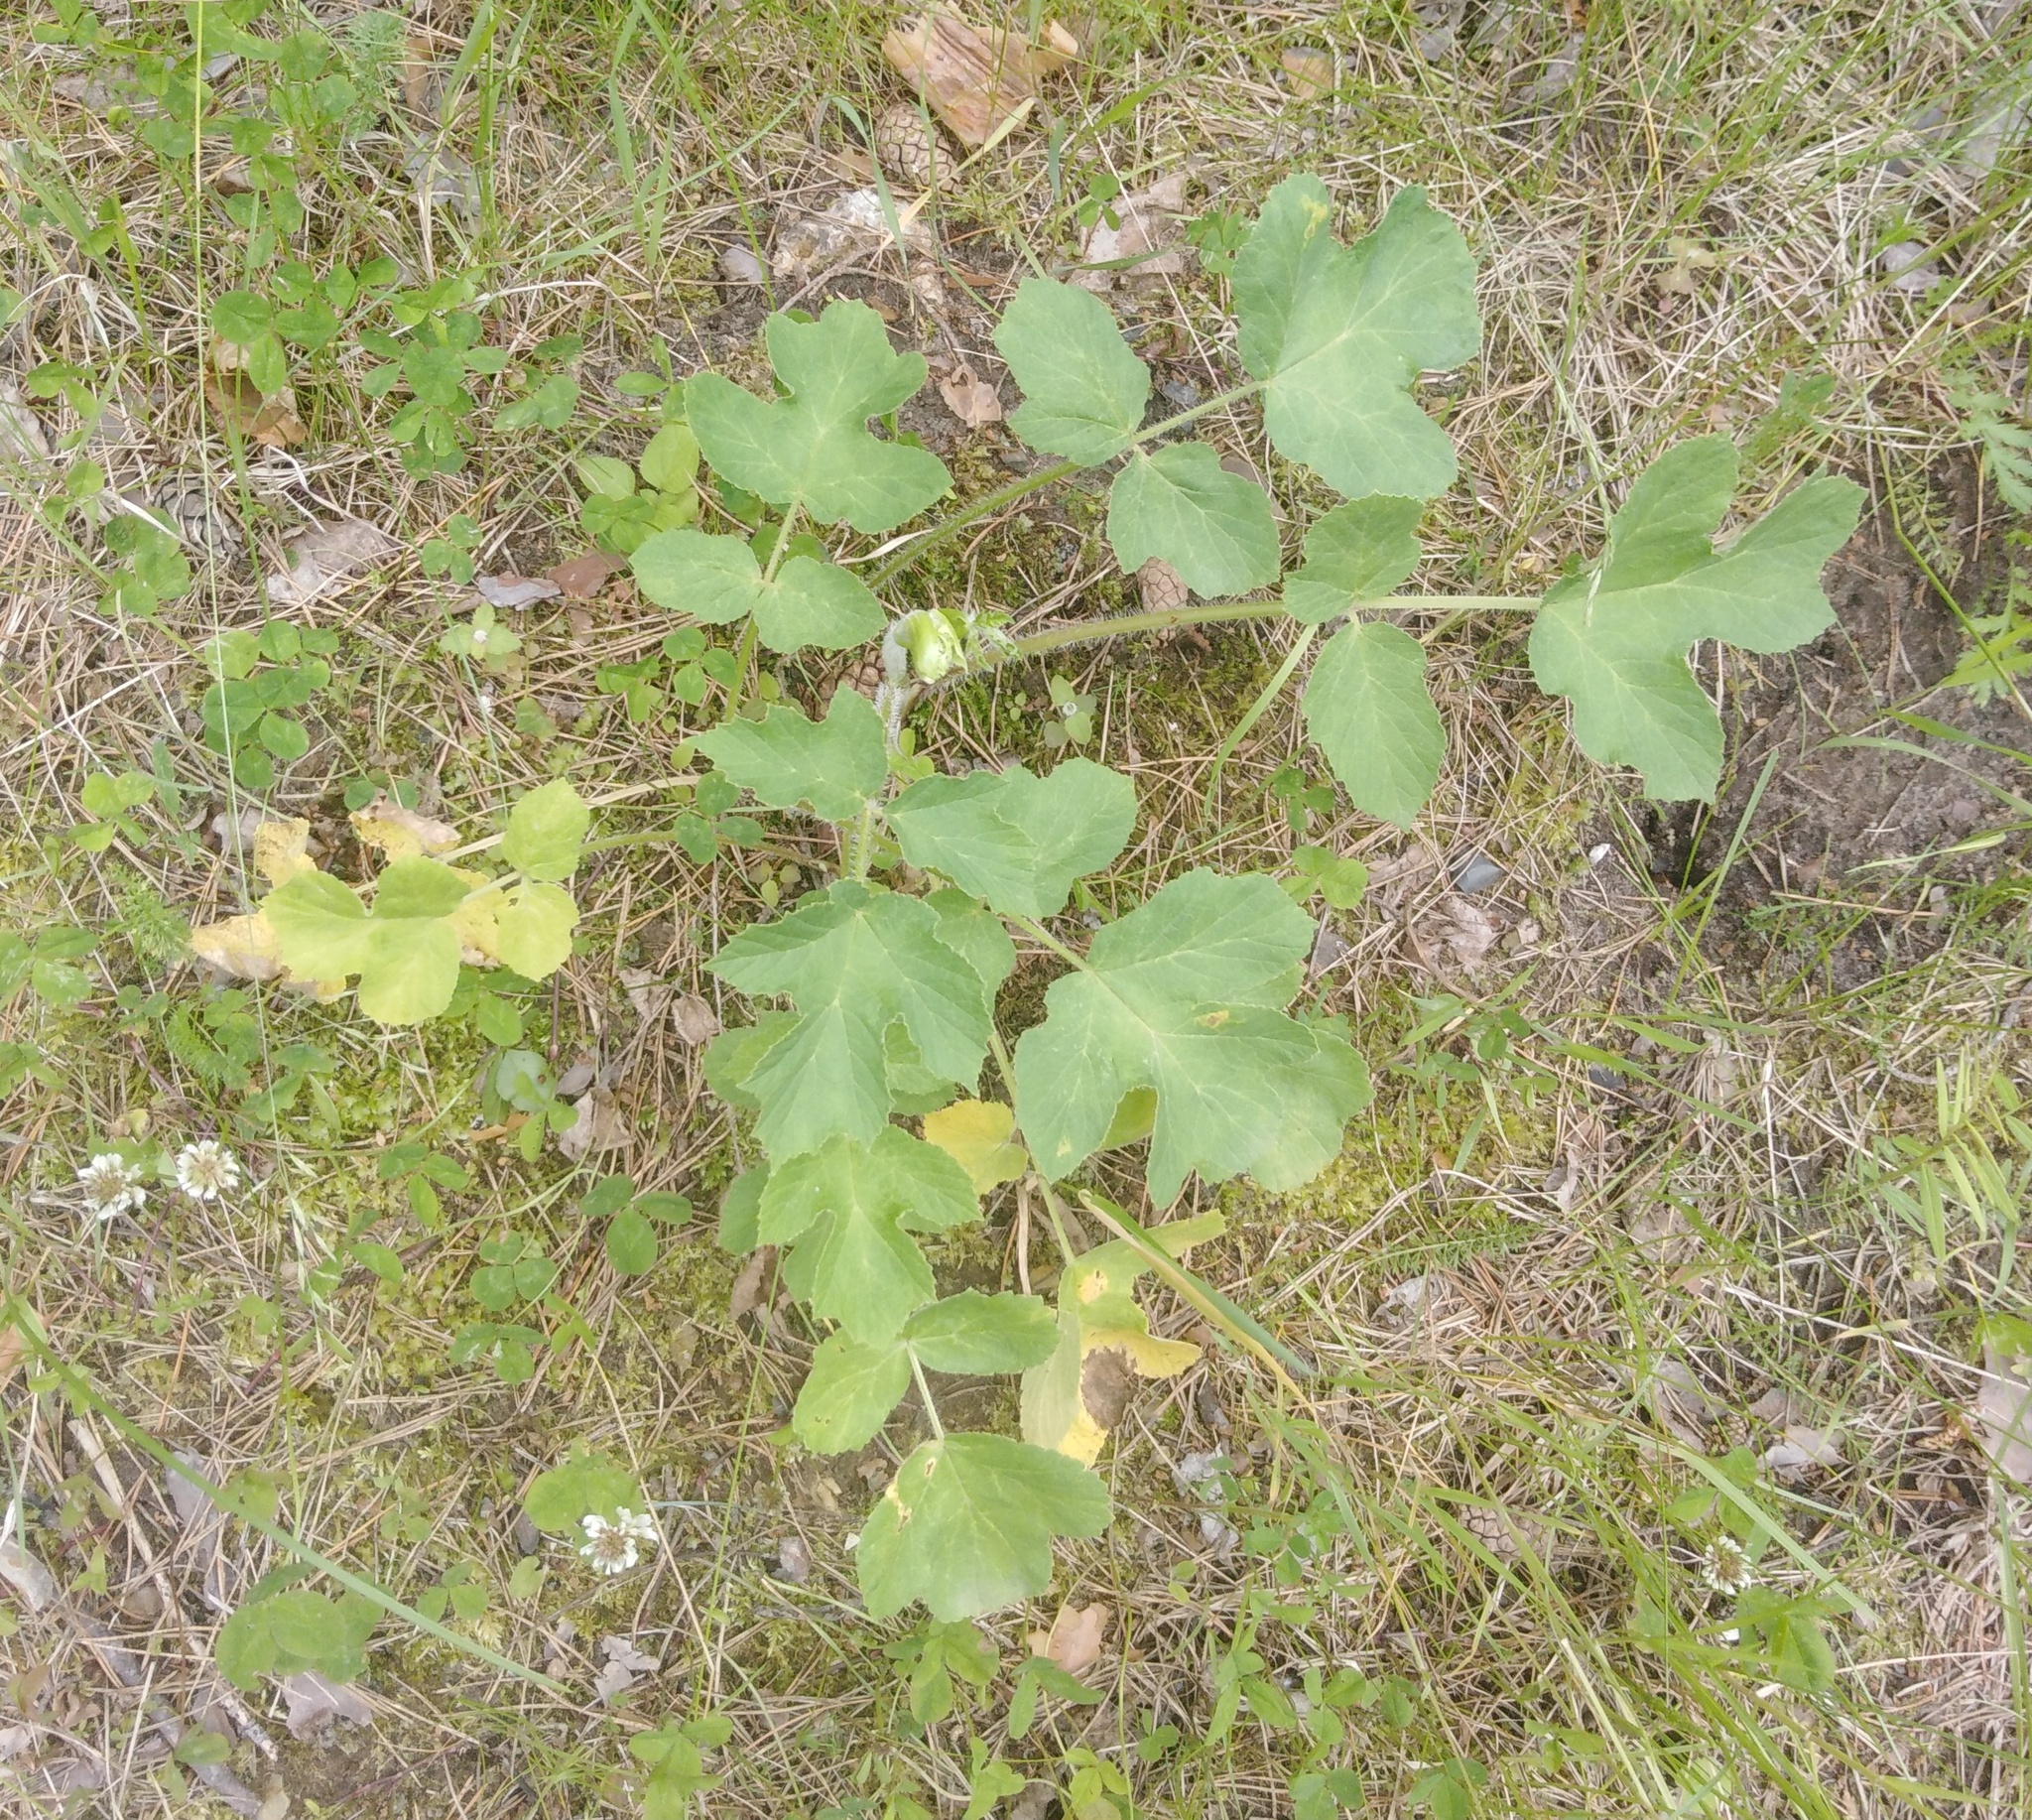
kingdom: Plantae
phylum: Tracheophyta
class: Magnoliopsida
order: Apiales
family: Apiaceae
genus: Heracleum
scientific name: Heracleum sphondylium
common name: Hogweed
